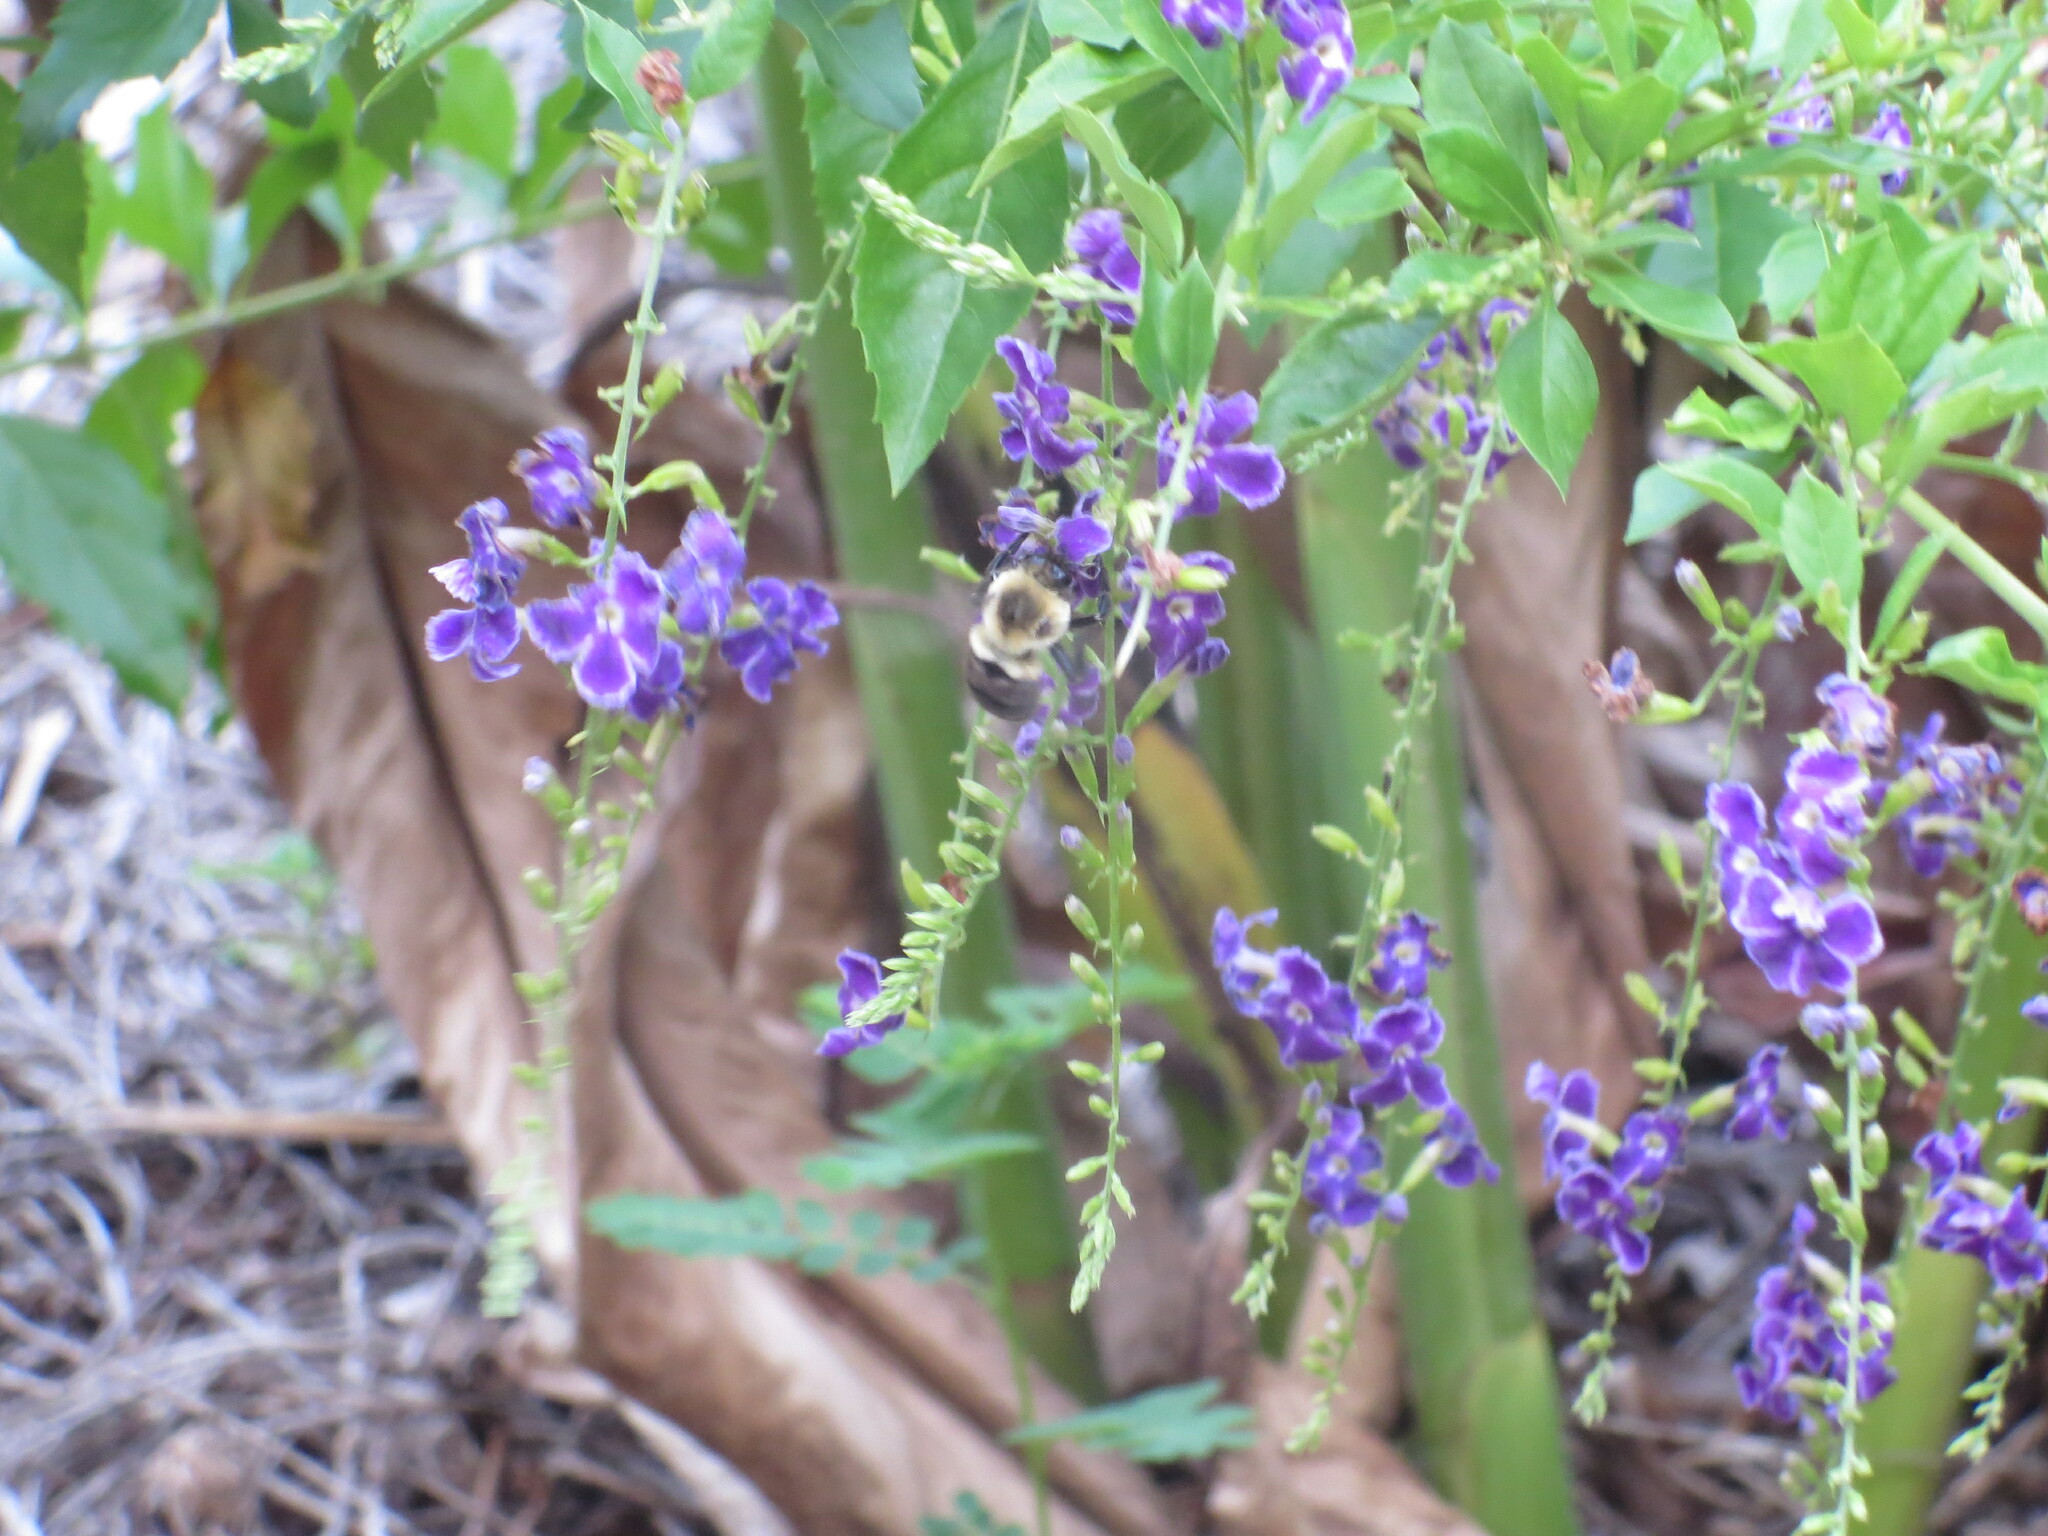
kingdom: Animalia
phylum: Arthropoda
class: Insecta
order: Hymenoptera
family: Apidae
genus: Bombus
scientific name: Bombus impatiens
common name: Common eastern bumble bee
